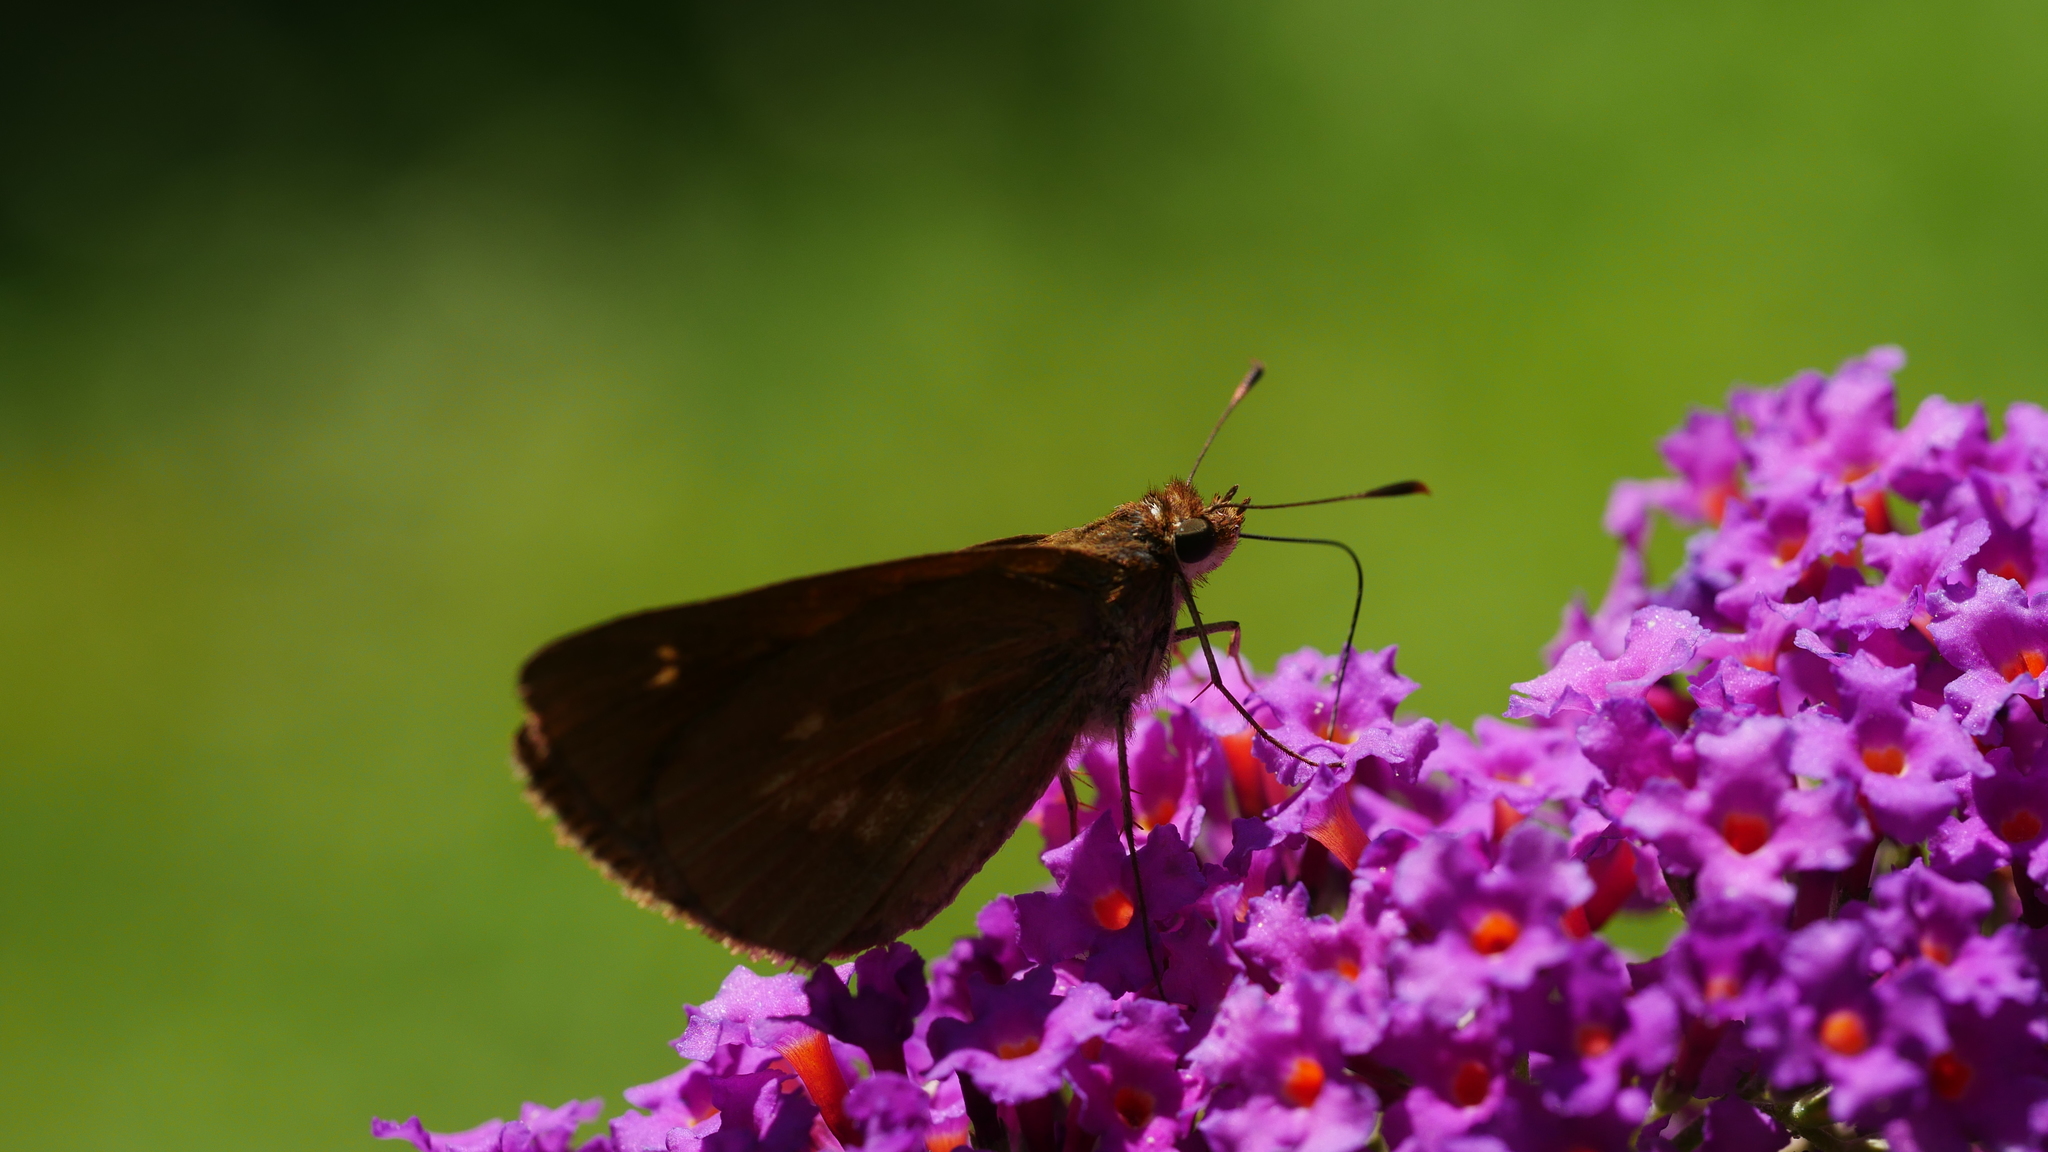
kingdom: Animalia
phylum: Arthropoda
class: Insecta
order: Lepidoptera
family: Hesperiidae
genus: Poanes
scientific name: Poanes viator
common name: Broad-winged skipper
